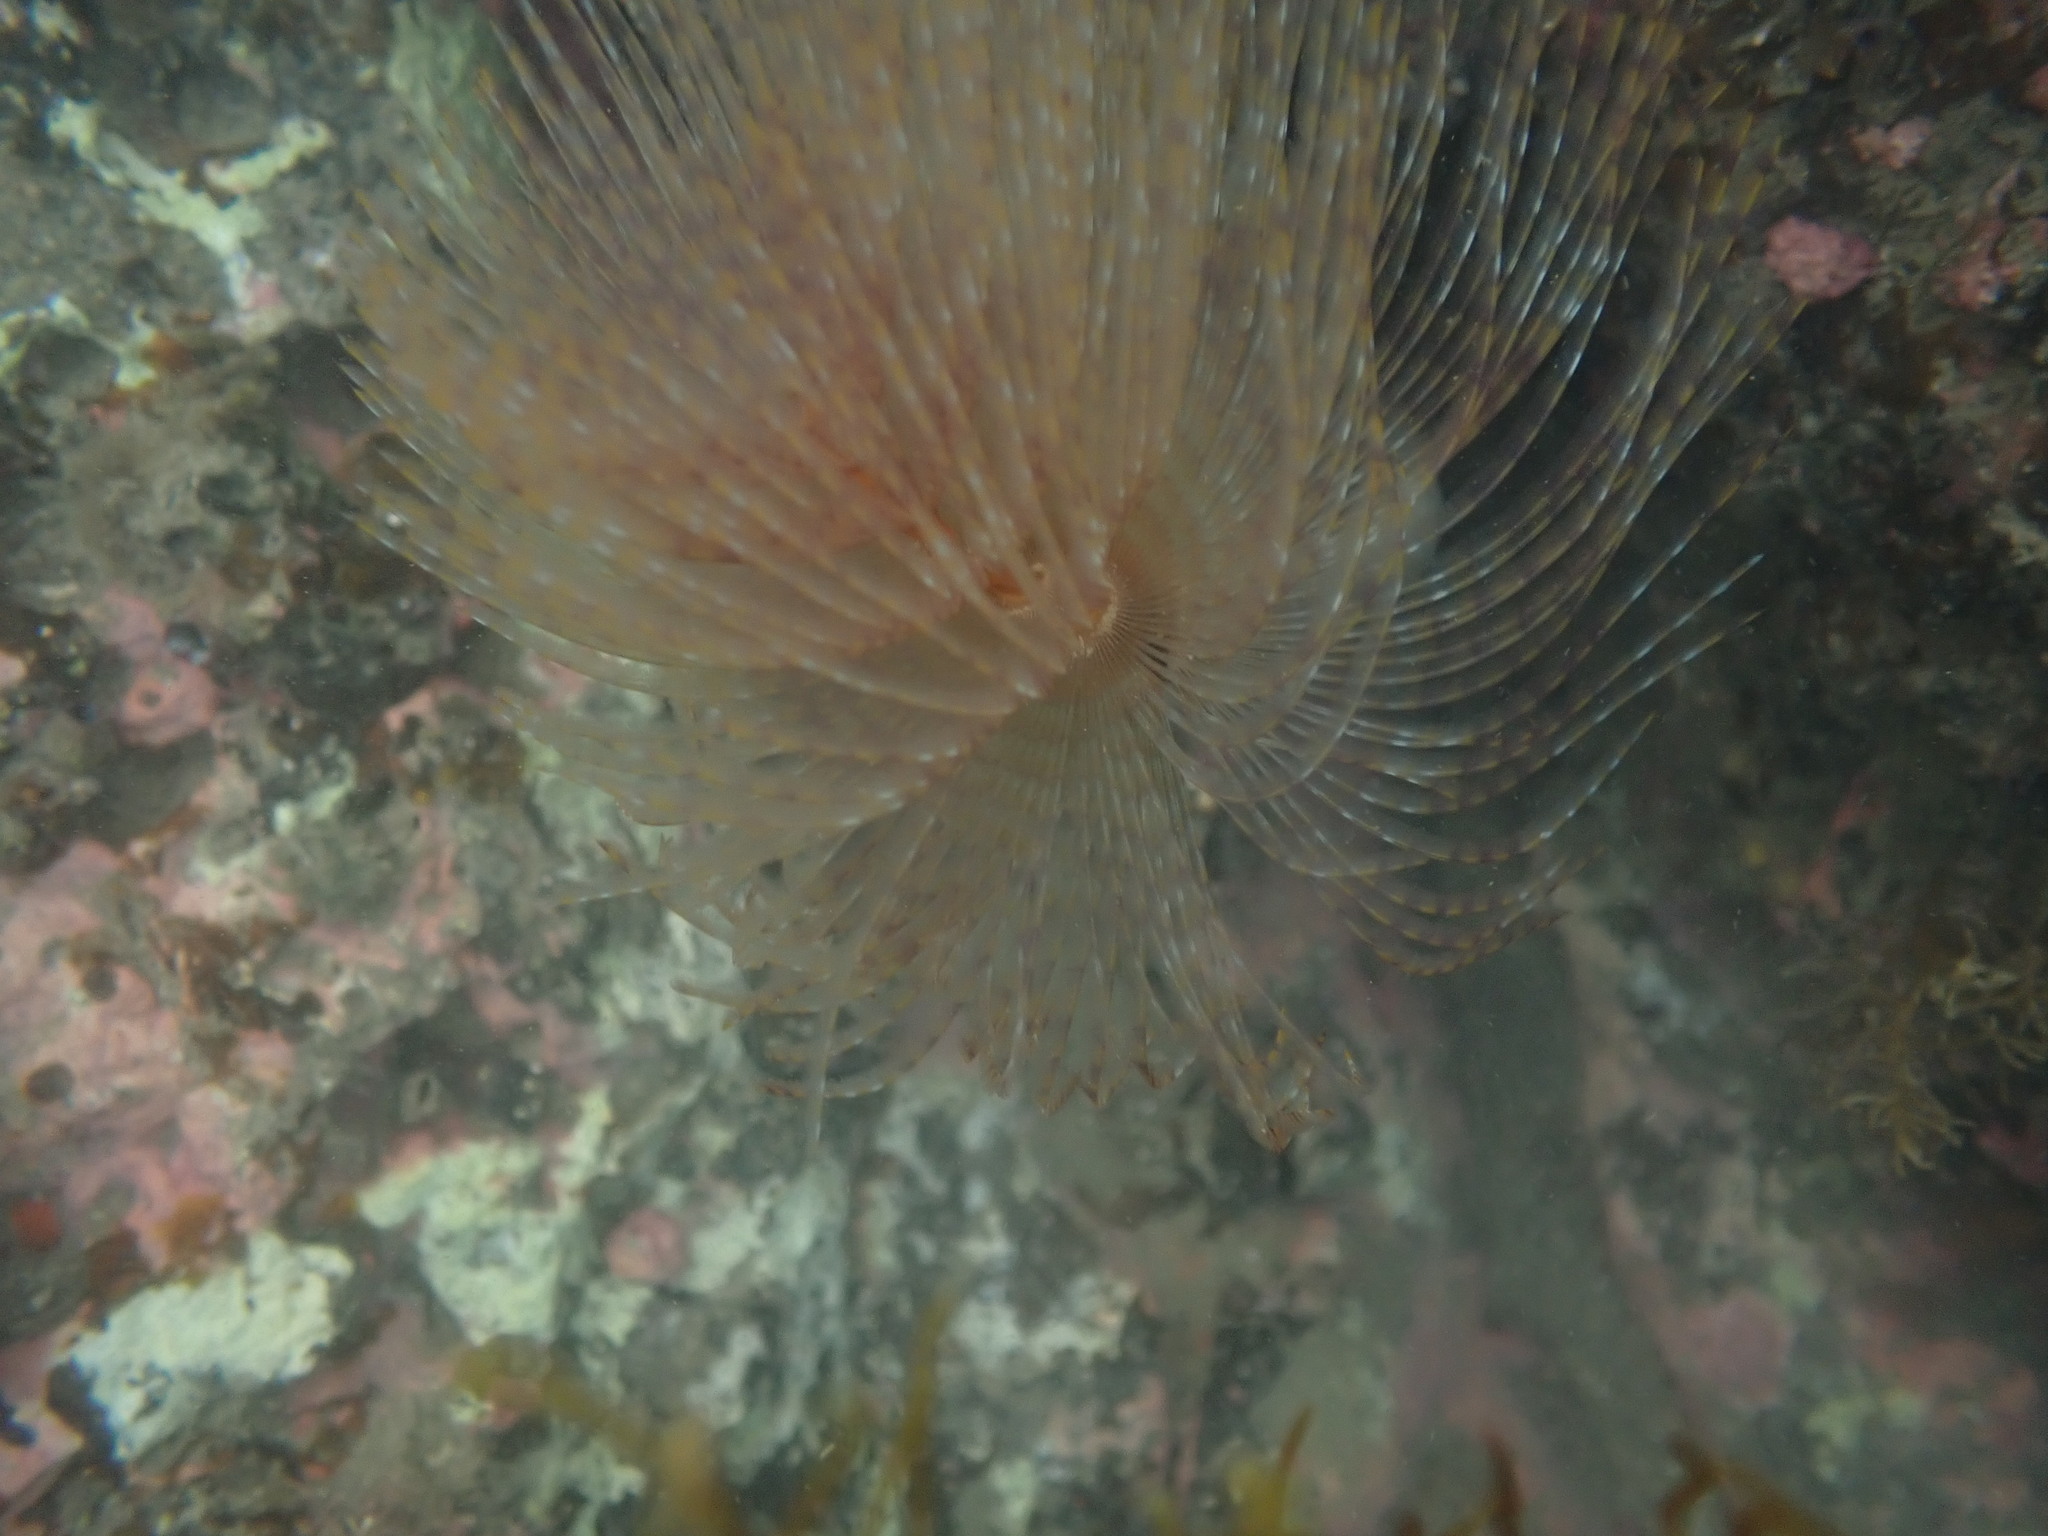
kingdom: Animalia
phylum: Annelida
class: Polychaeta
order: Sabellida
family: Sabellidae
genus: Sabella
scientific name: Sabella spallanzanii
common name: Feather duster worm
